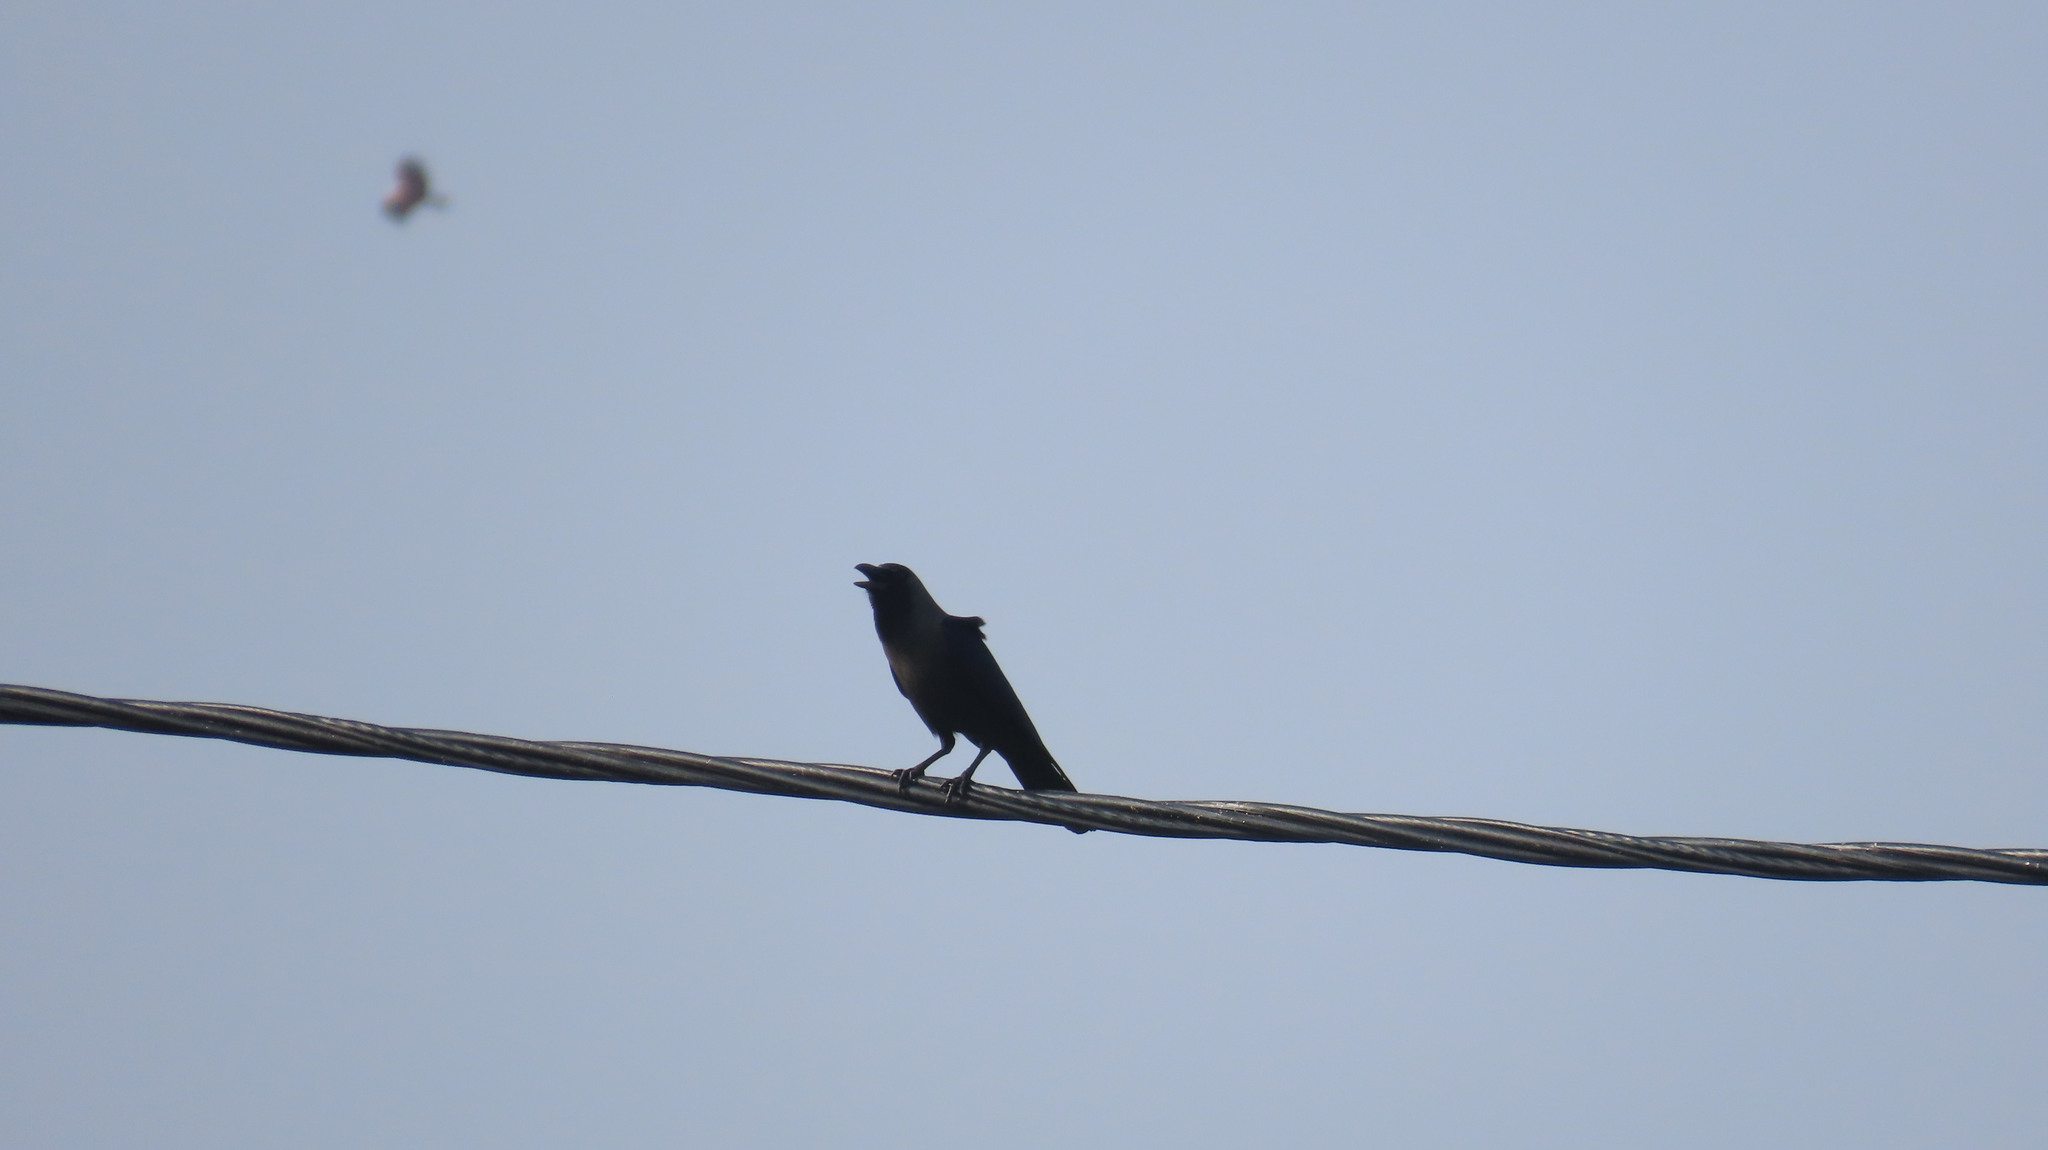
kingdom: Animalia
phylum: Chordata
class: Aves
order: Passeriformes
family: Corvidae
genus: Corvus
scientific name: Corvus splendens
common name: House crow
